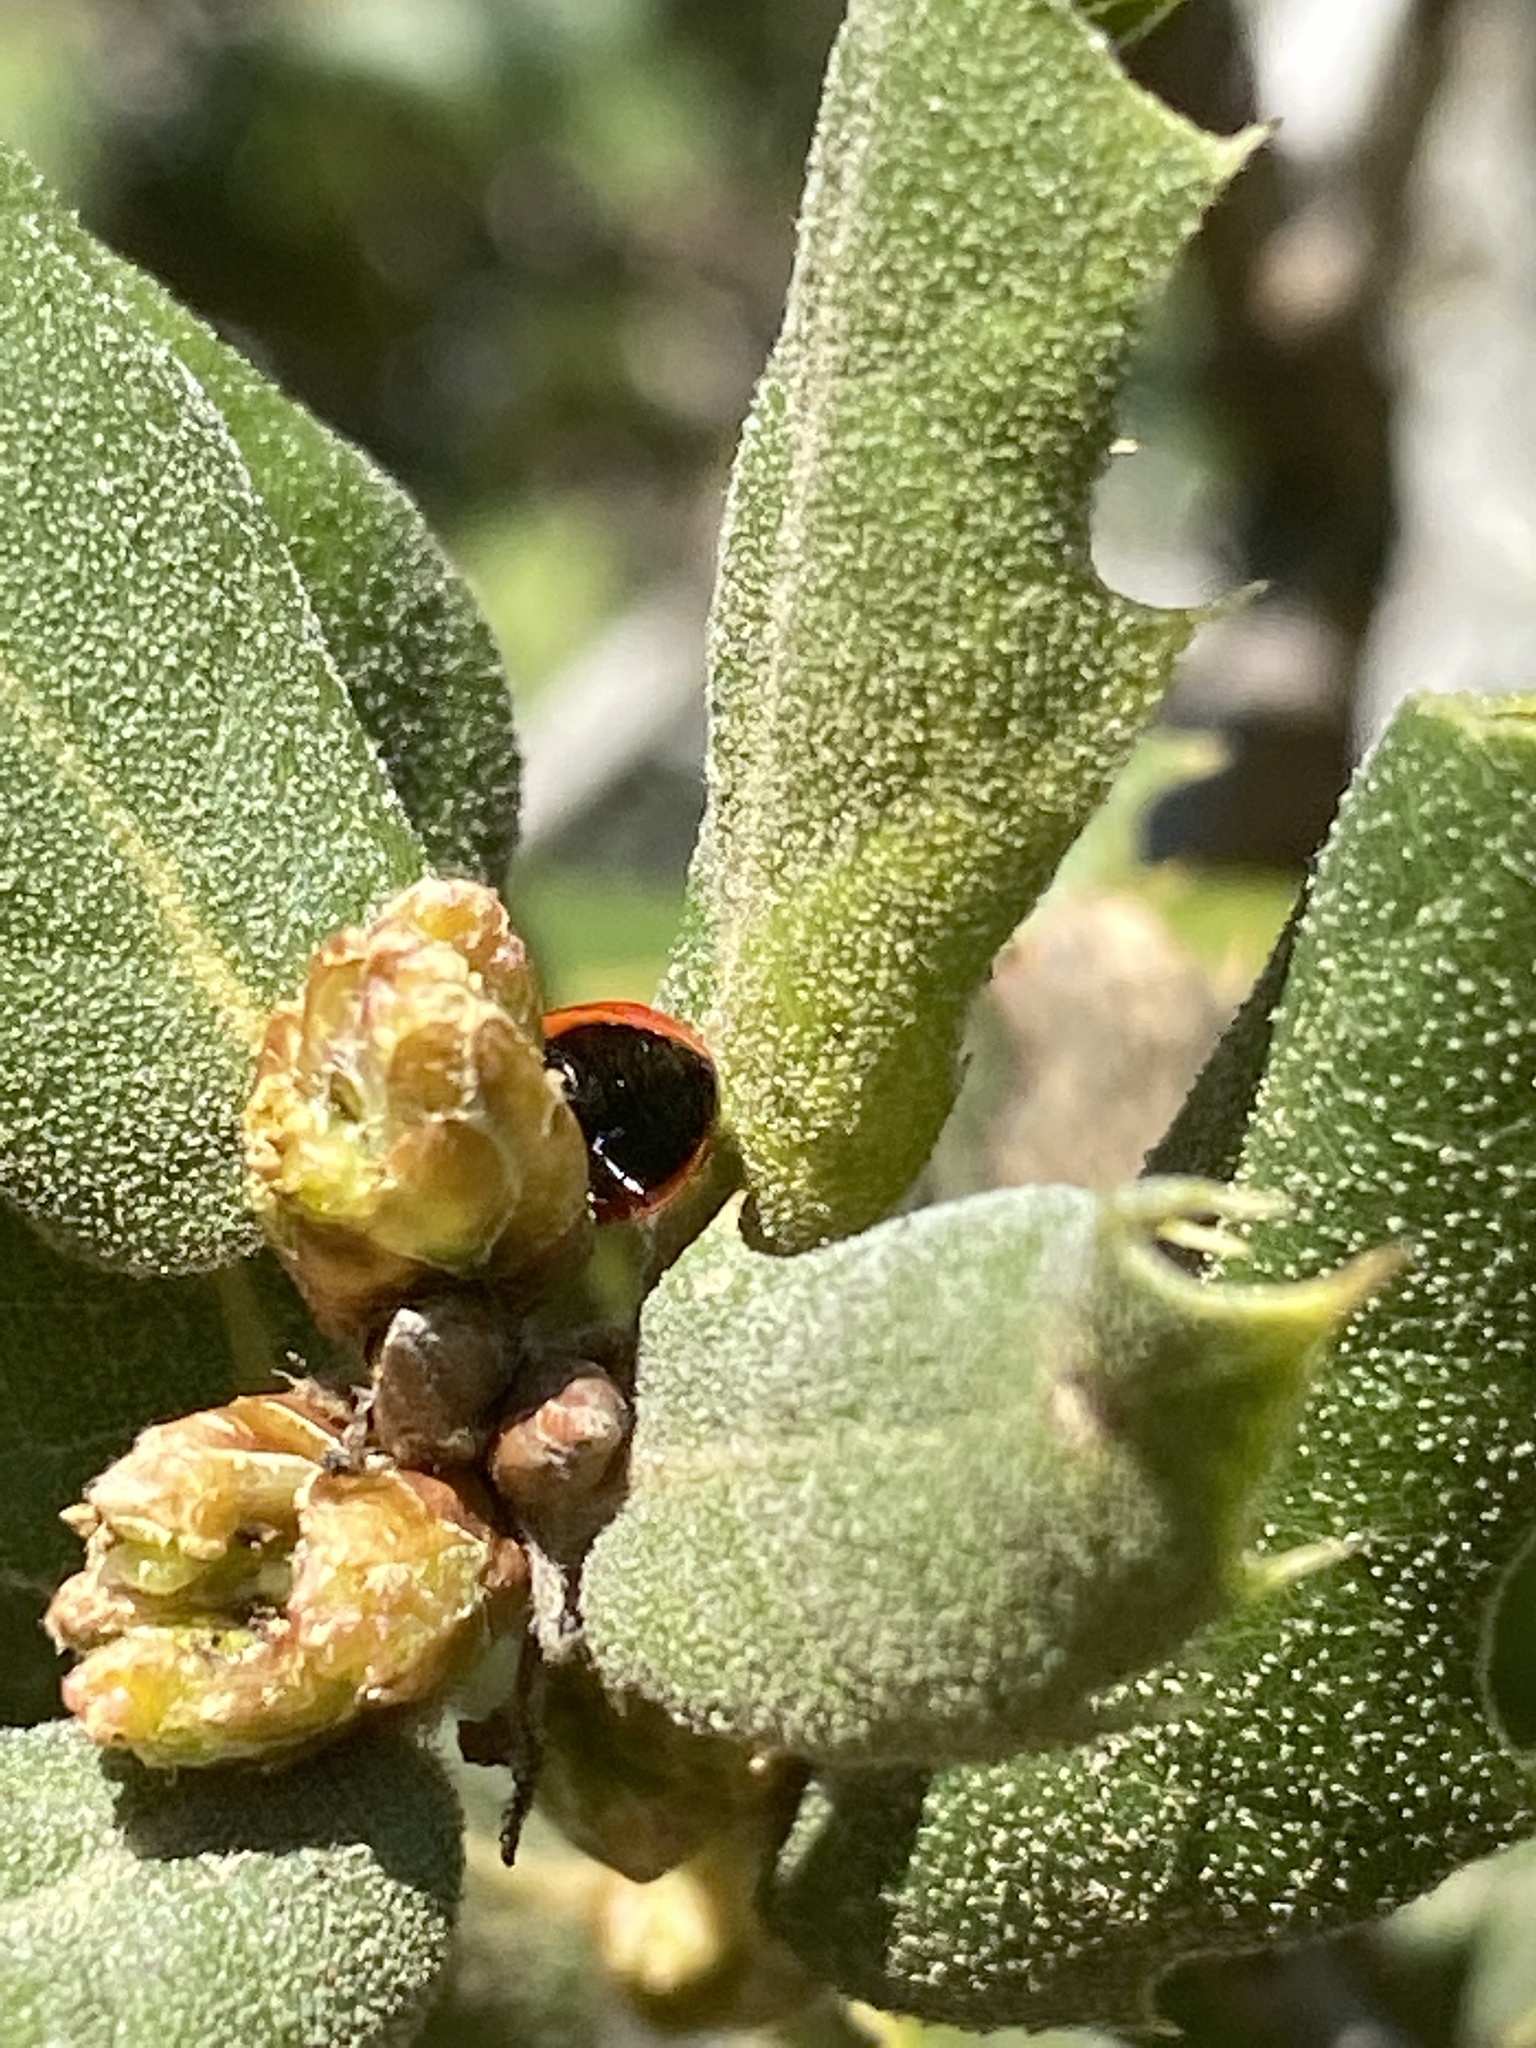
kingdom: Animalia
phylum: Arthropoda
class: Insecta
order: Coleoptera
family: Coccinellidae
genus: Cycloneda
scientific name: Cycloneda polita
